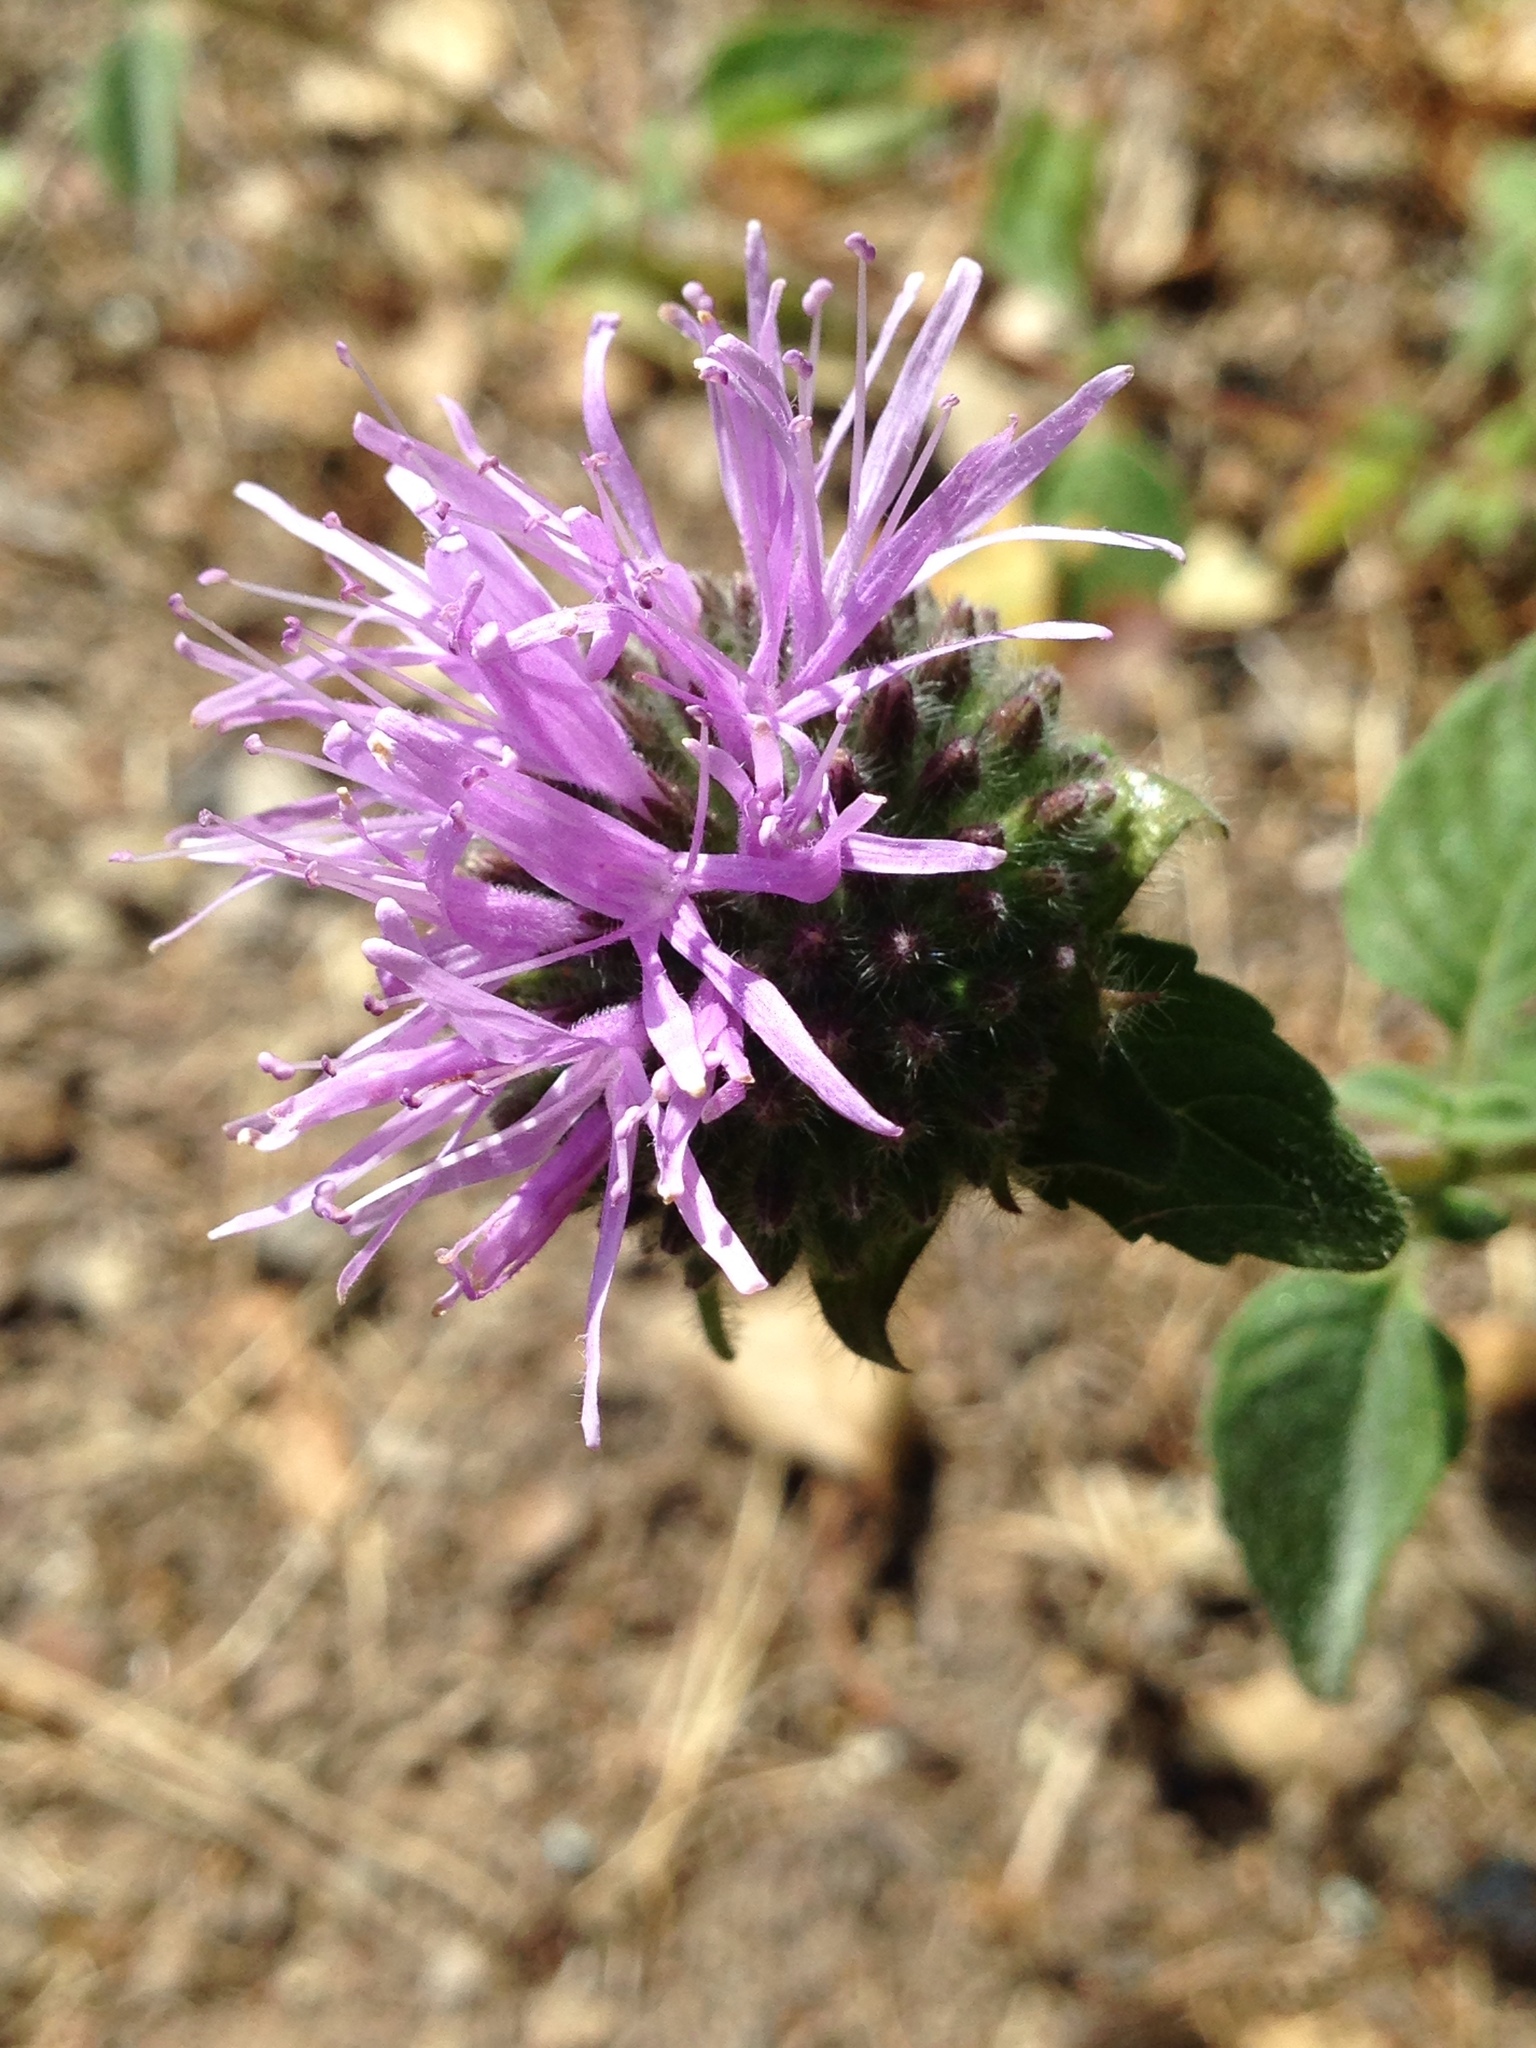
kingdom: Plantae
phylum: Tracheophyta
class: Magnoliopsida
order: Lamiales
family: Lamiaceae
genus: Monardella
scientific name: Monardella odoratissima
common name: Pacific monardella
